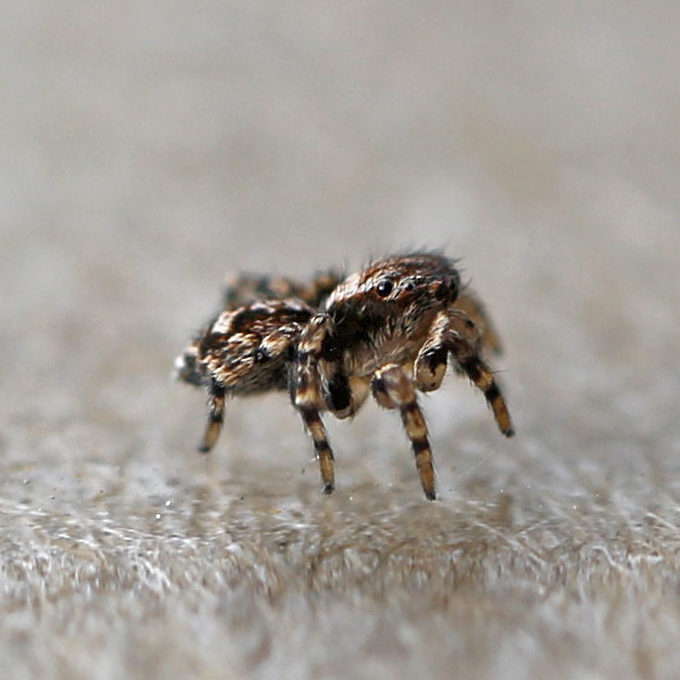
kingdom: Animalia
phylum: Arthropoda
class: Arachnida
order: Araneae
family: Salticidae
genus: Naphrys
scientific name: Naphrys pulex
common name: Flea jumping spider
